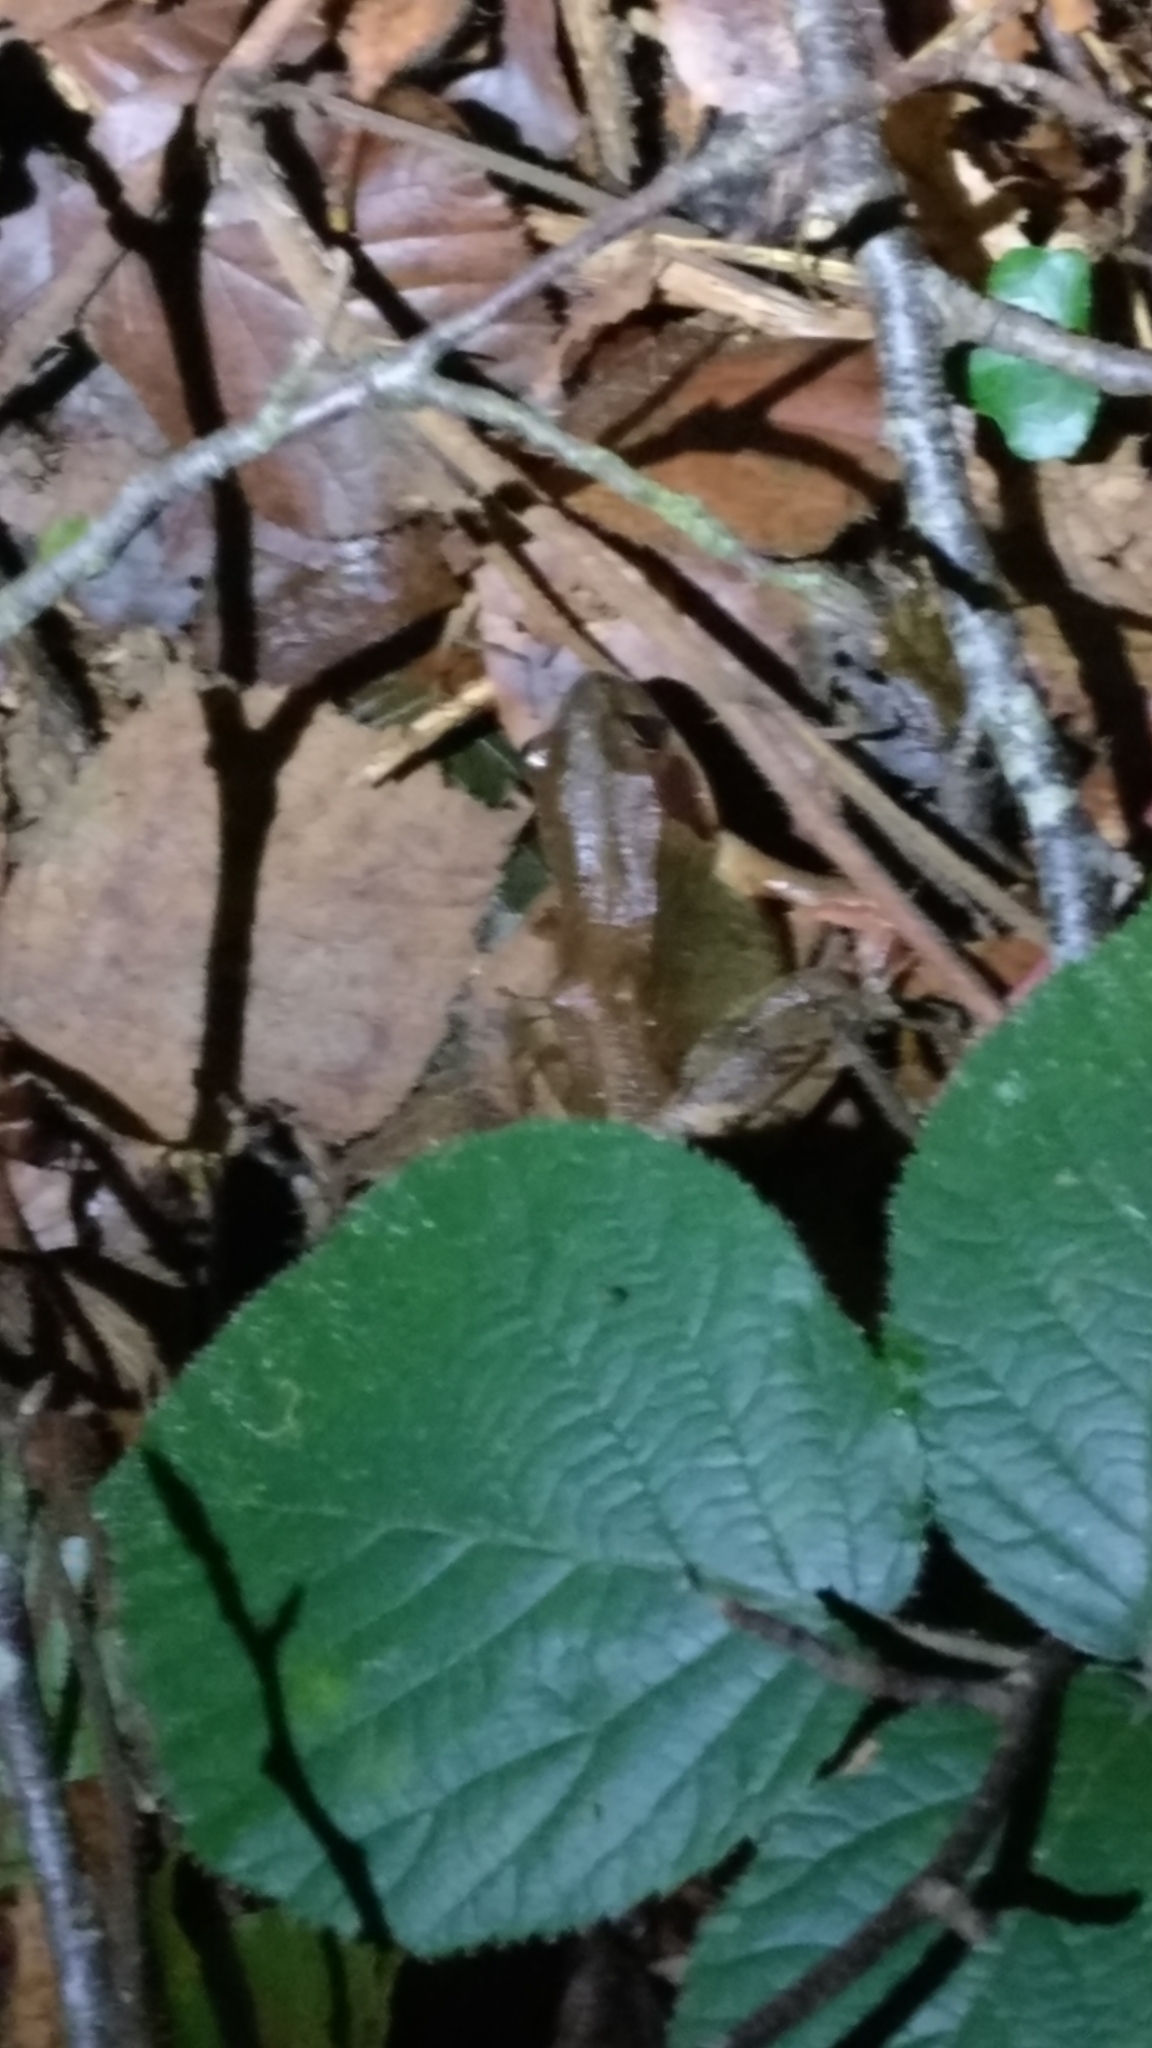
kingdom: Animalia
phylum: Chordata
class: Amphibia
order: Anura
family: Ranidae
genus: Rana
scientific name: Rana temporaria
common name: Common frog
